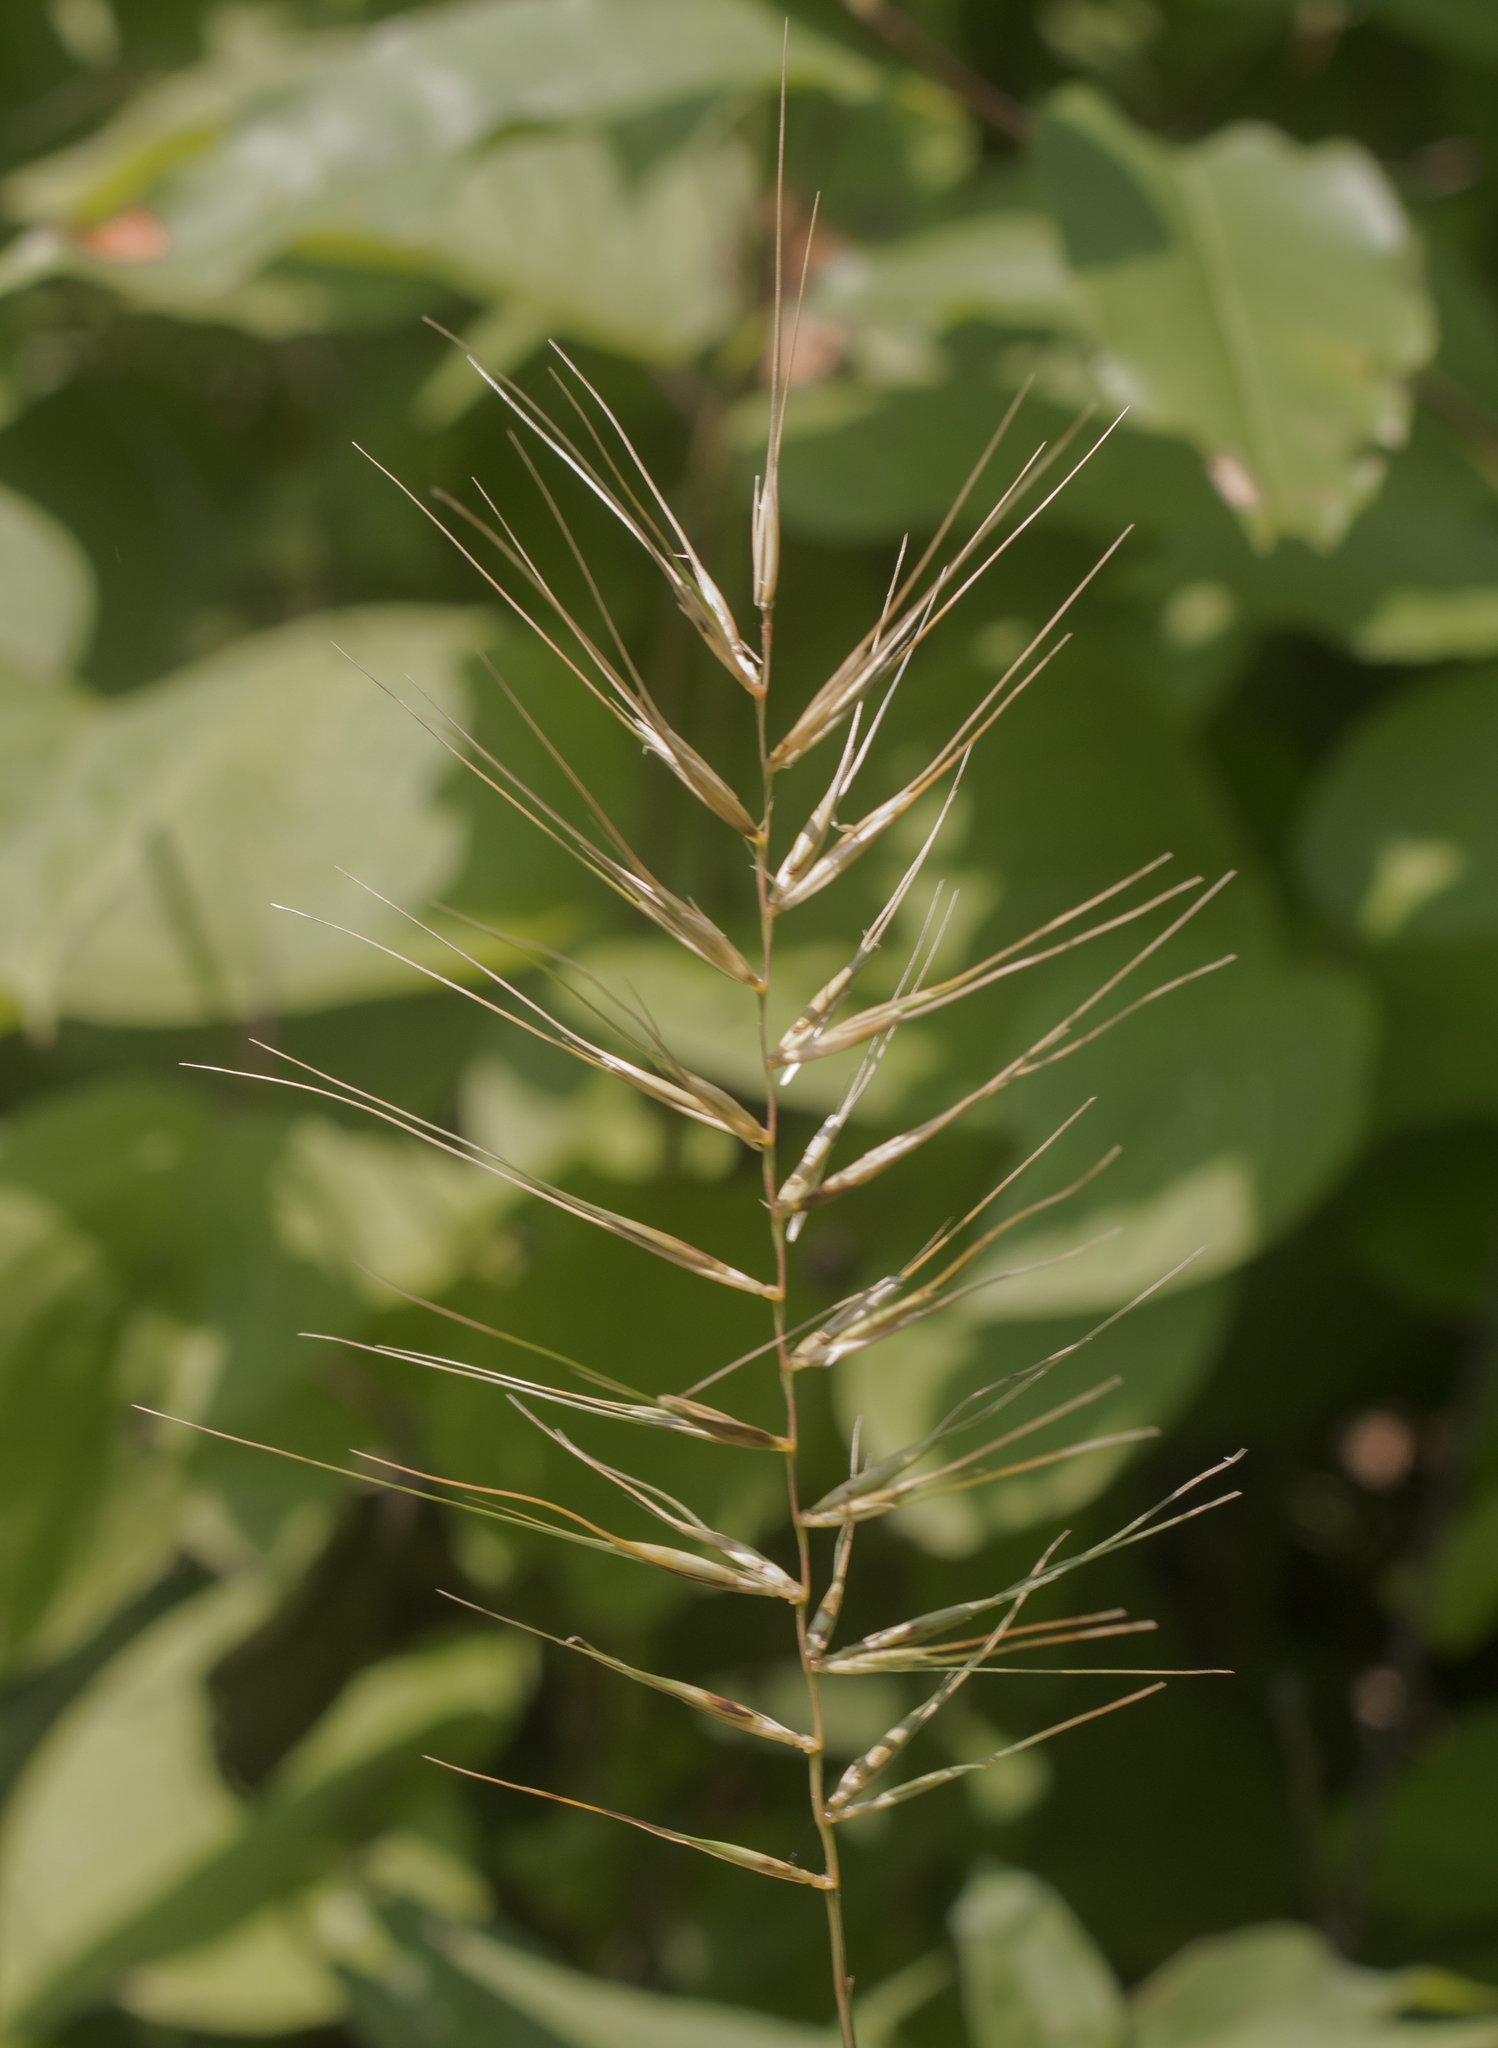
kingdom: Plantae
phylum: Tracheophyta
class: Liliopsida
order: Poales
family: Poaceae
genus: Elymus
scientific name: Elymus hystrix
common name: Bottlebrush grass
